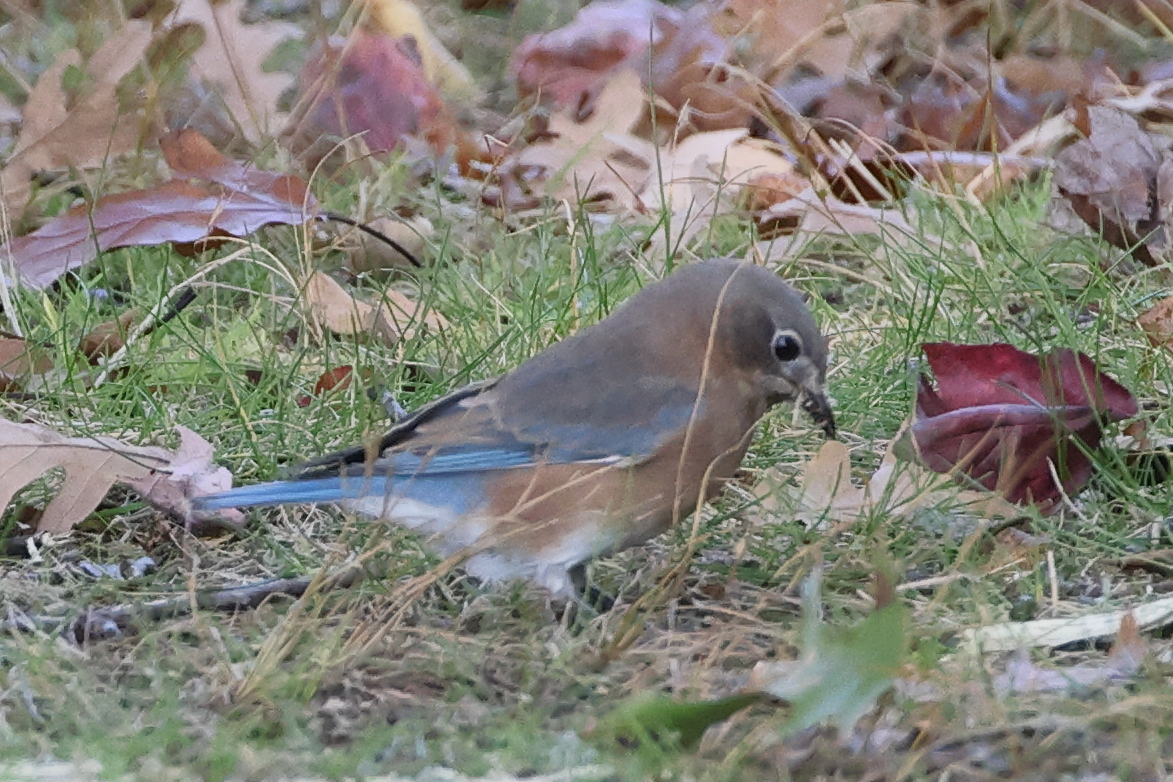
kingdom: Animalia
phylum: Chordata
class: Aves
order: Passeriformes
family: Turdidae
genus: Sialia
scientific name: Sialia sialis
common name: Eastern bluebird
